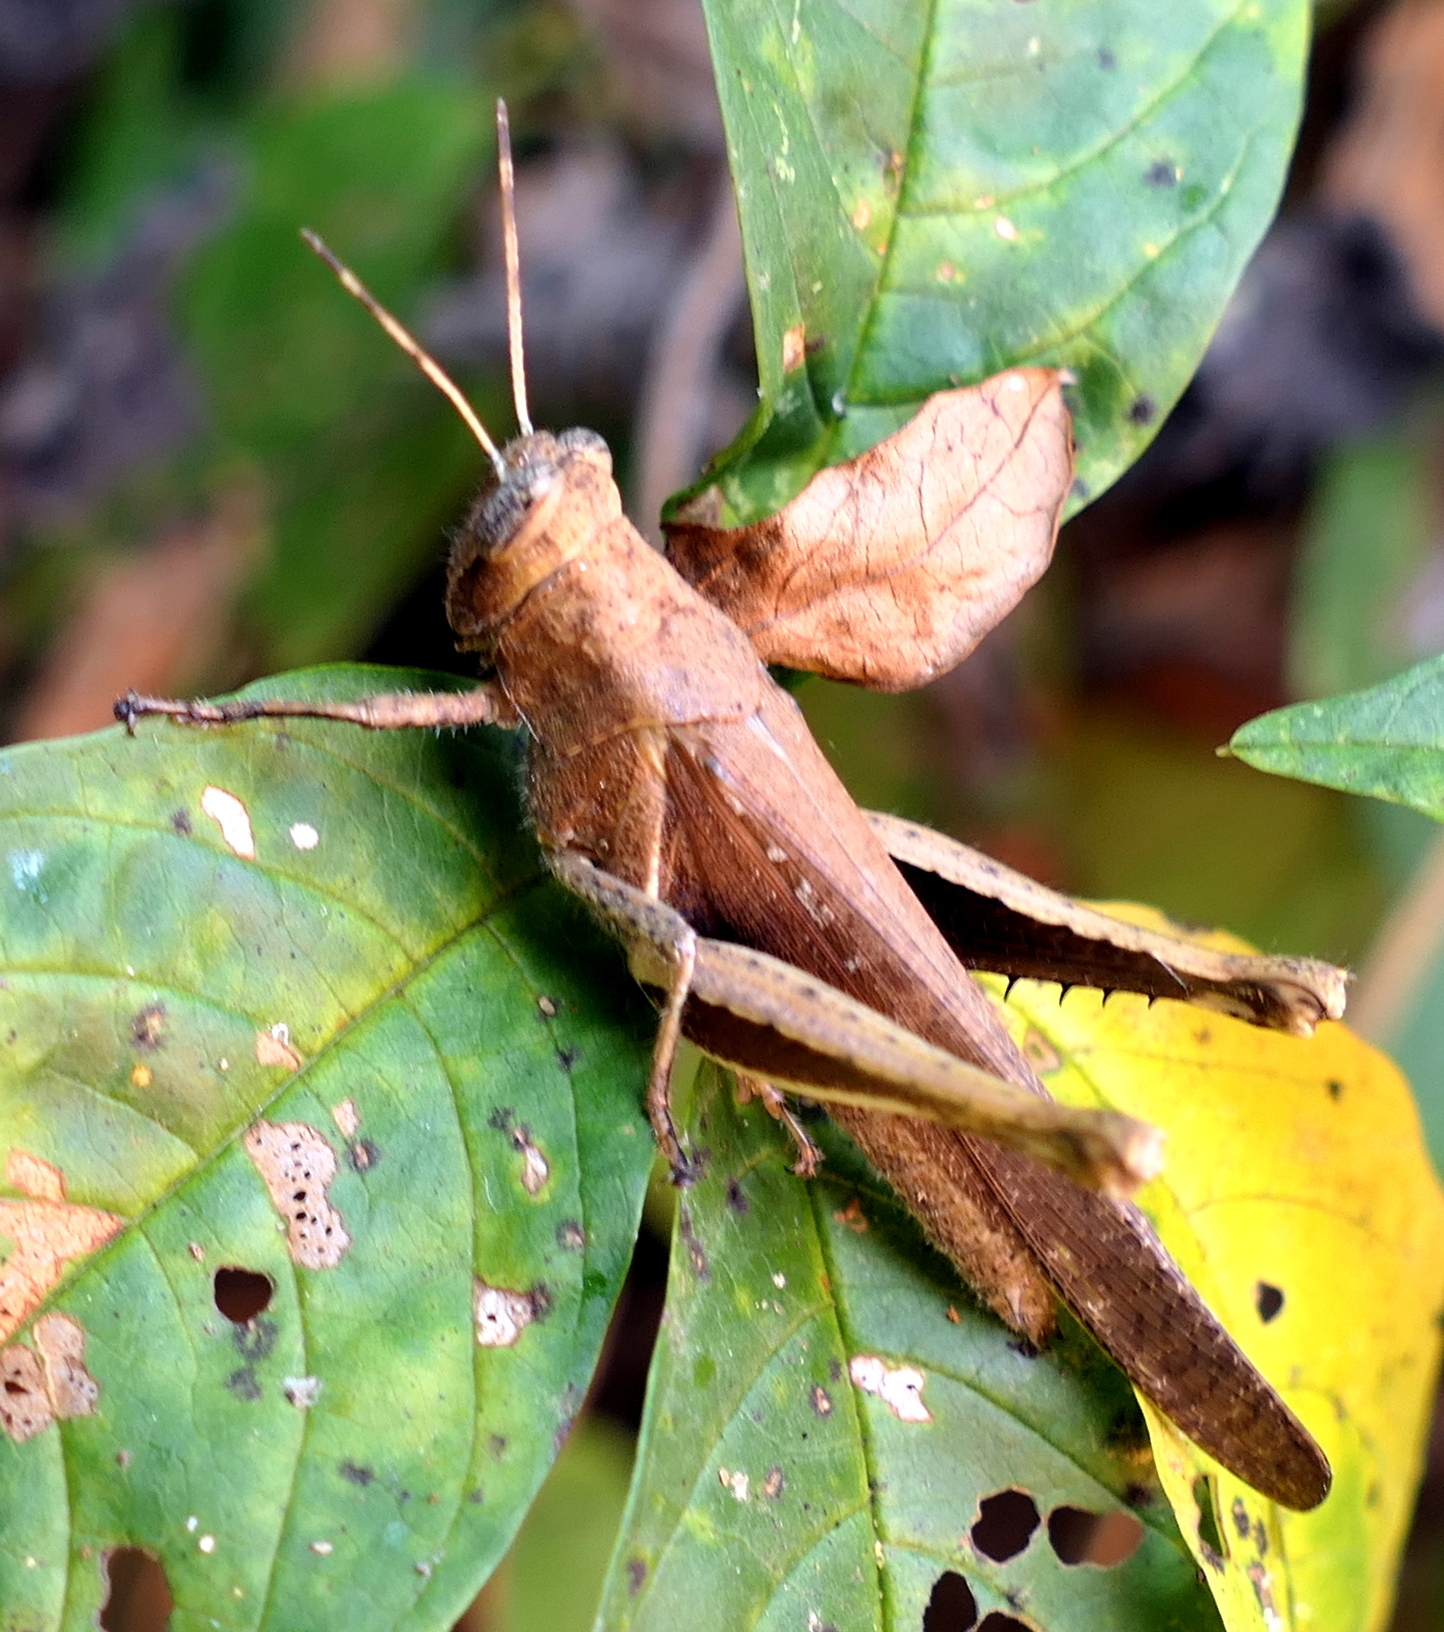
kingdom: Animalia
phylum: Arthropoda
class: Insecta
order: Orthoptera
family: Acrididae
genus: Abracris
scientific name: Abracris flavolineata
